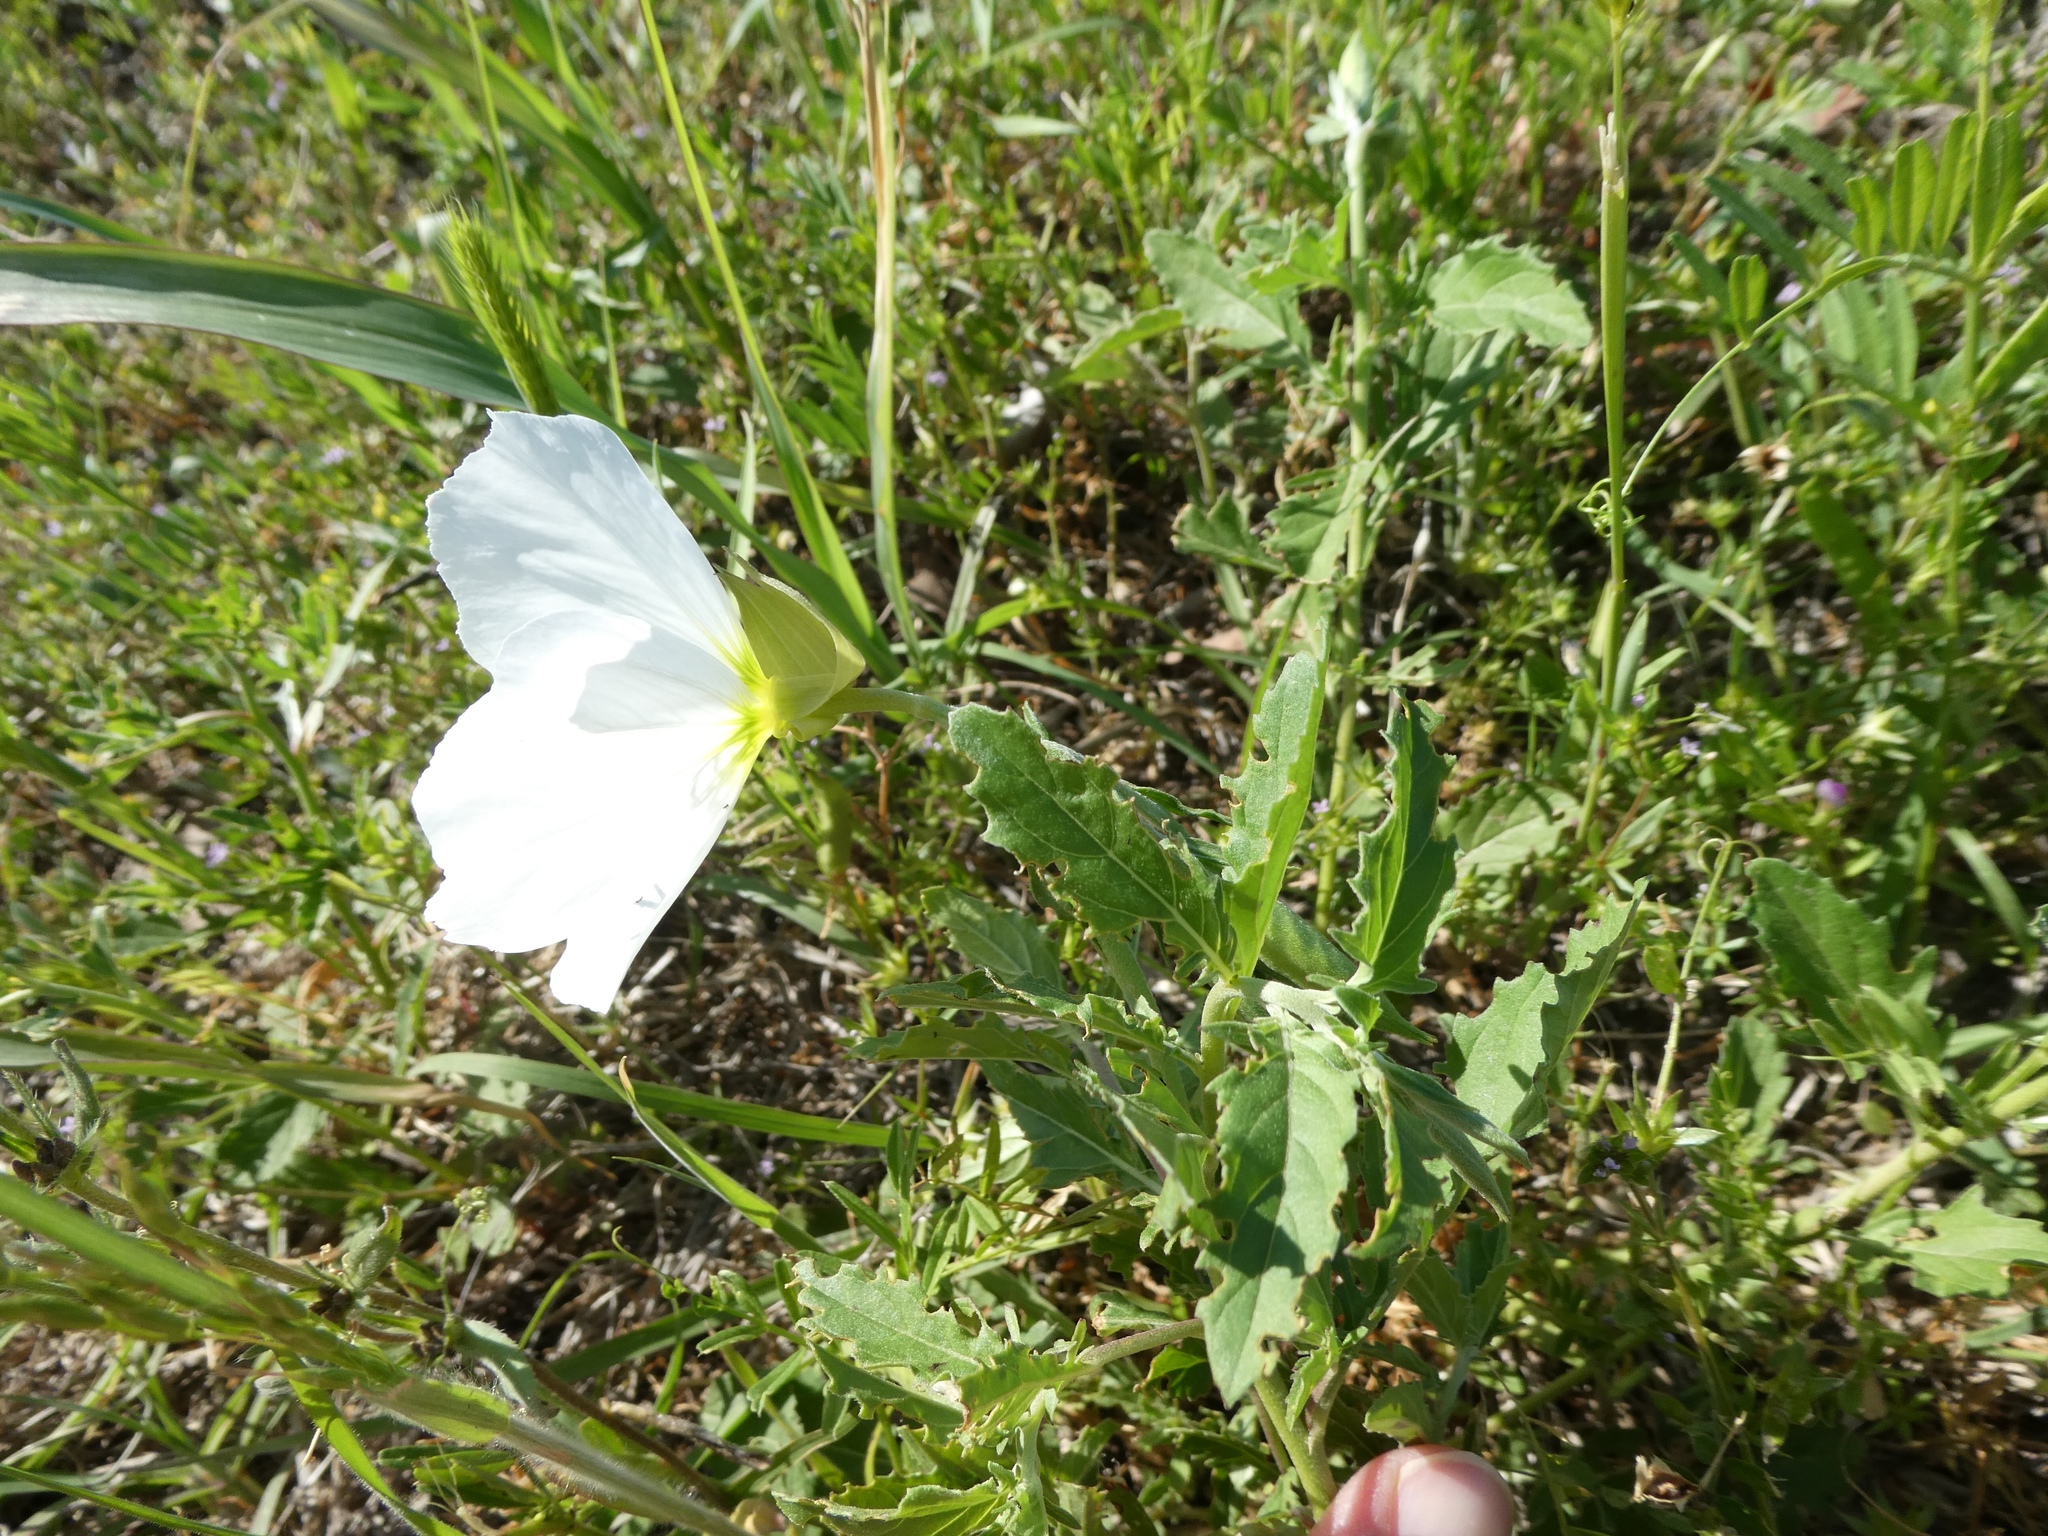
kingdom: Plantae
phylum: Tracheophyta
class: Magnoliopsida
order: Myrtales
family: Onagraceae
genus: Oenothera
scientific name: Oenothera speciosa
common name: White evening-primrose
